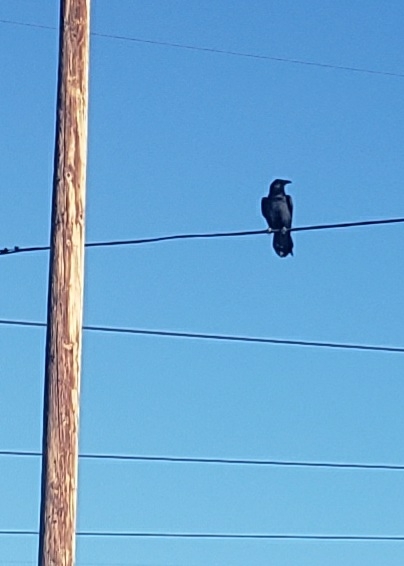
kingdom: Animalia
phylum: Chordata
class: Aves
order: Passeriformes
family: Corvidae
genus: Corvus
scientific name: Corvus corax
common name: Common raven
